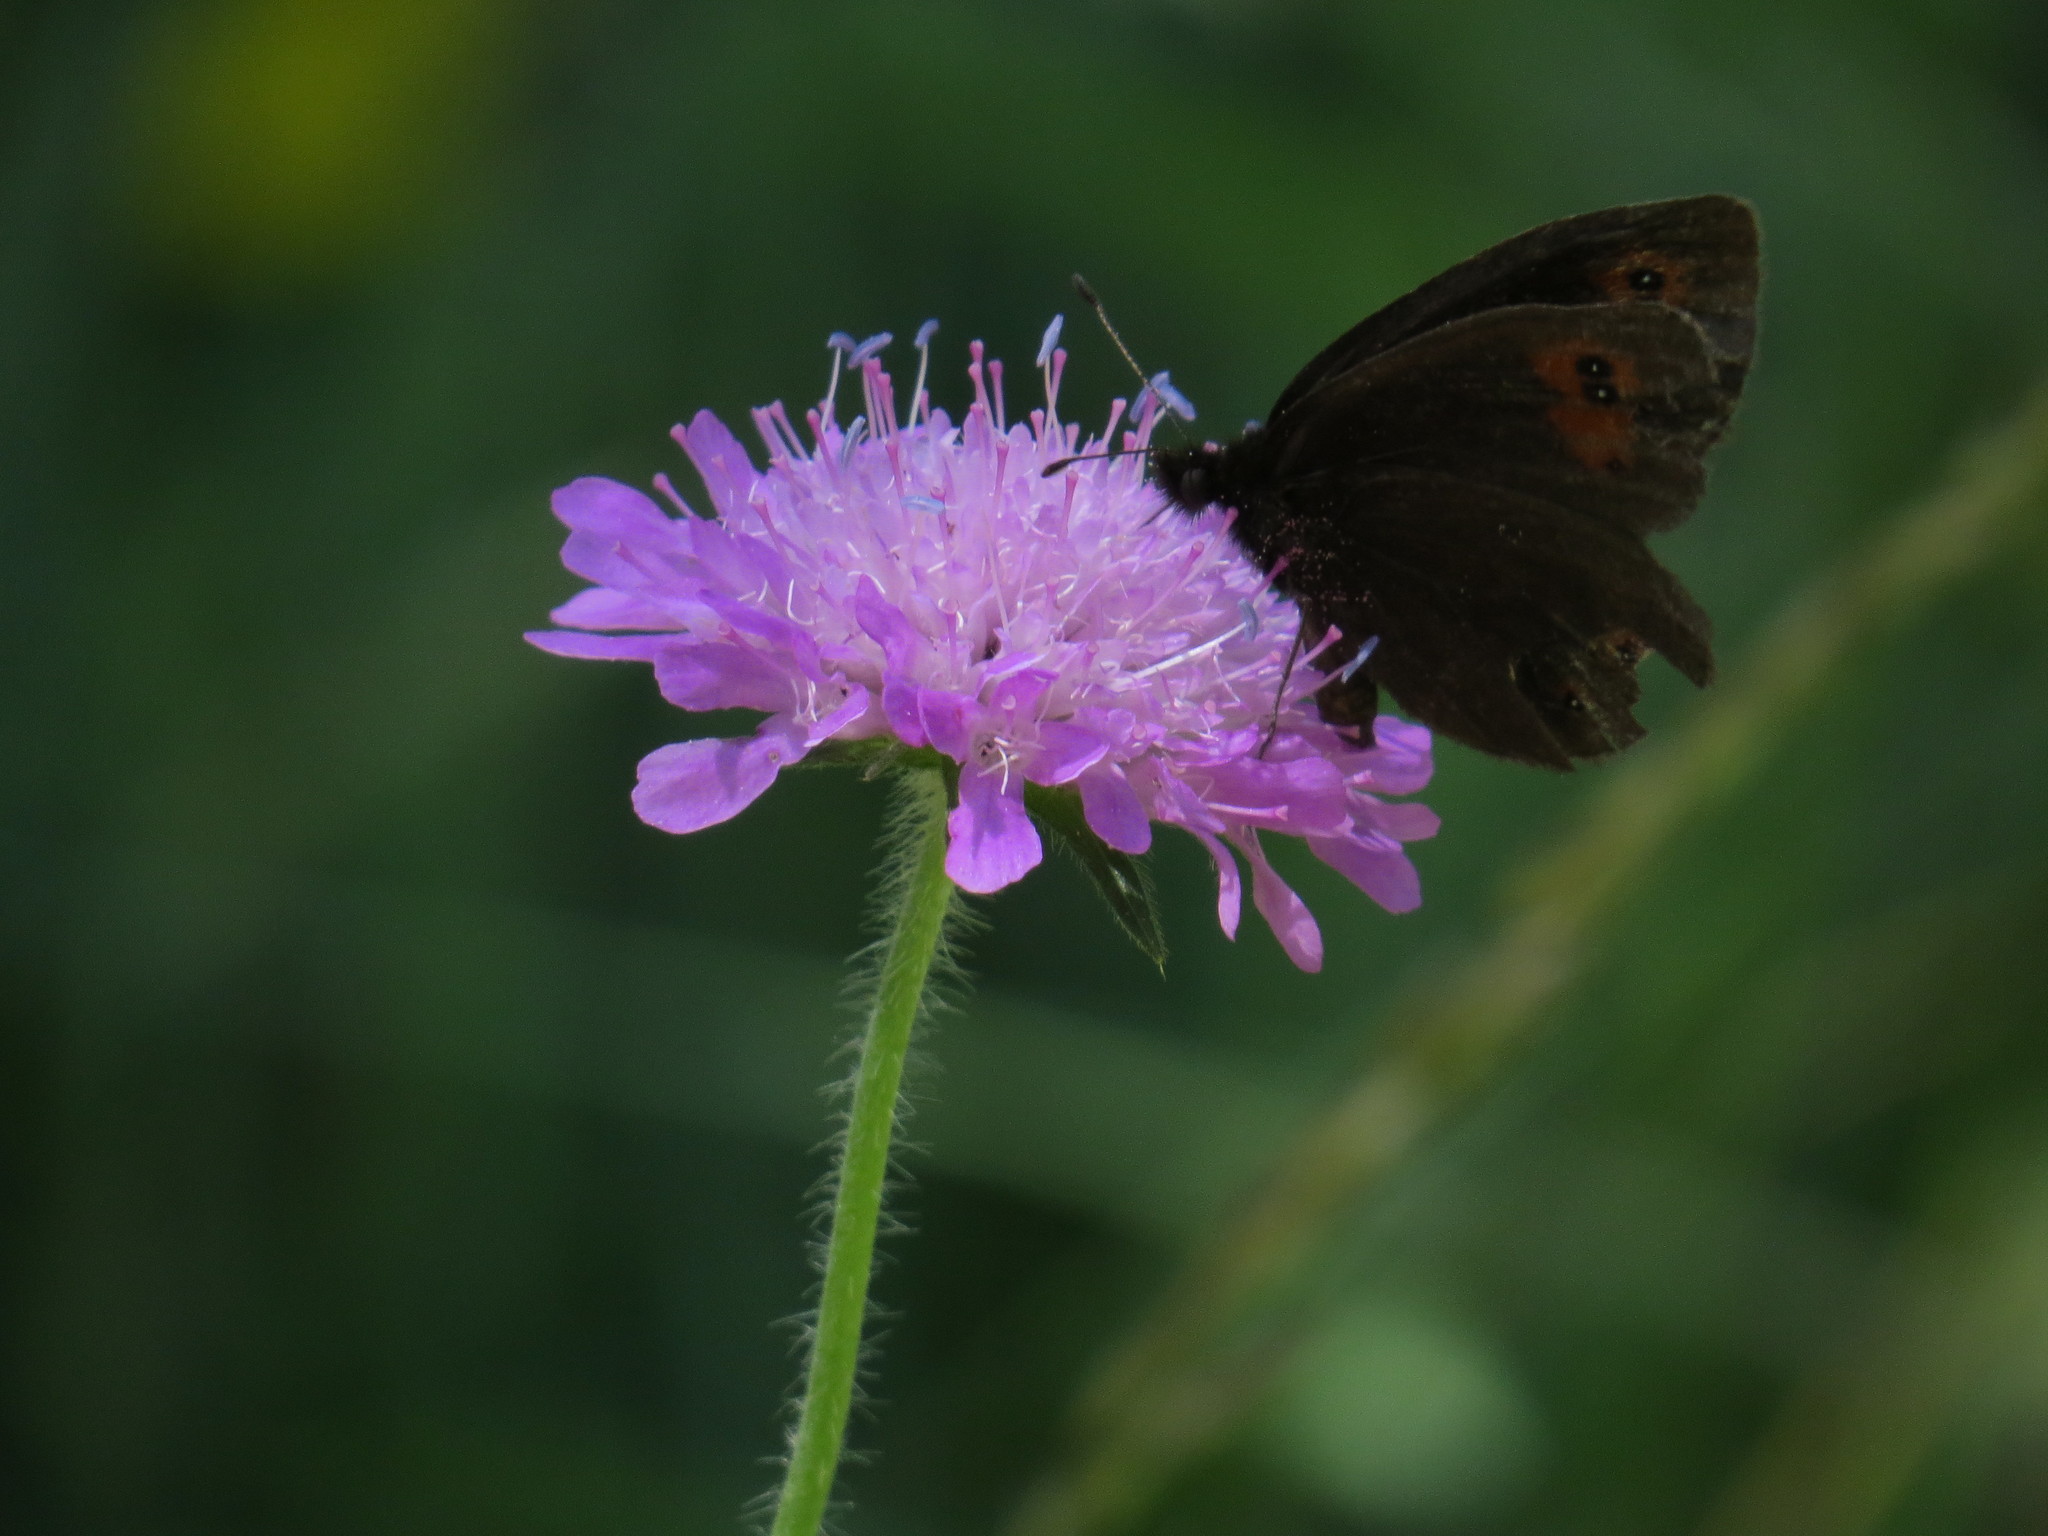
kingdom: Animalia
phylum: Arthropoda
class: Insecta
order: Lepidoptera
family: Nymphalidae
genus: Erebia
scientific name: Erebia meolans
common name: Piedmont ringlet
